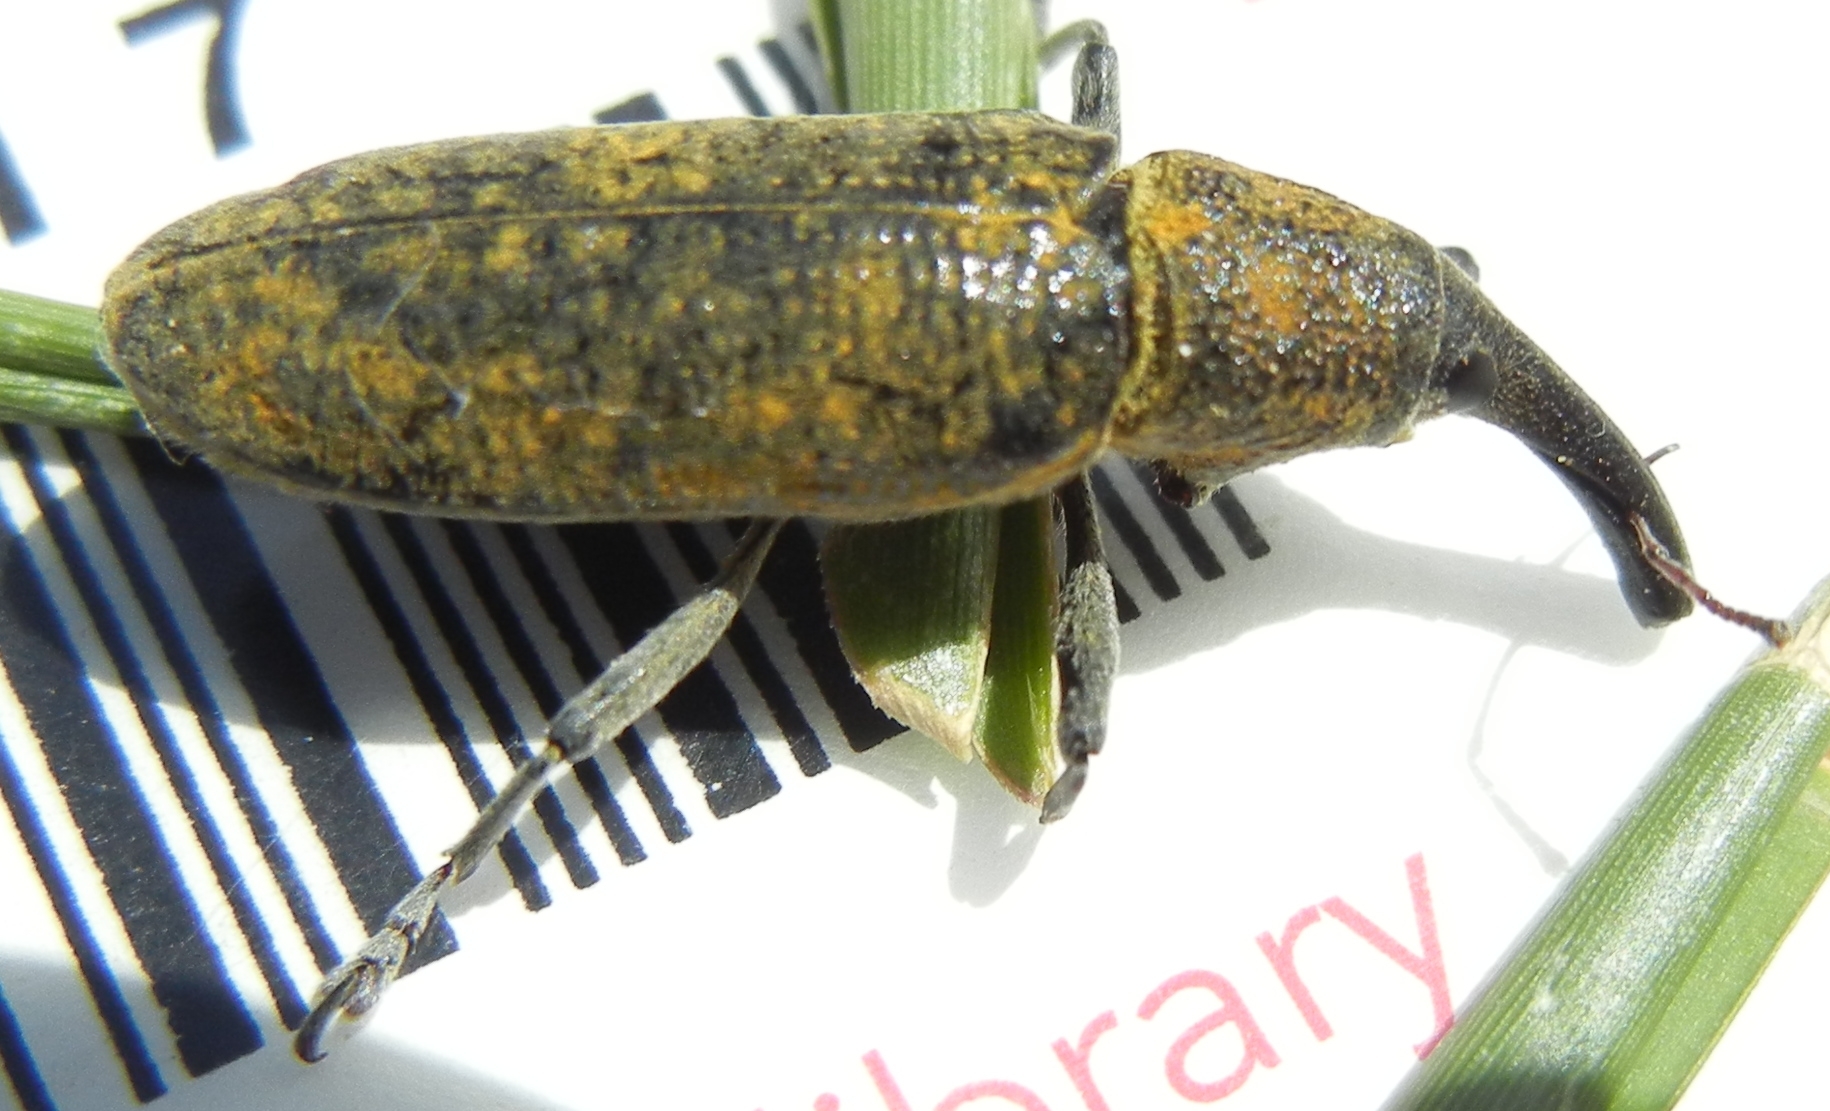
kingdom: Animalia
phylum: Arthropoda
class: Insecta
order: Coleoptera
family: Curculionidae
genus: Lixus
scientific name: Lixus pulverulentus
